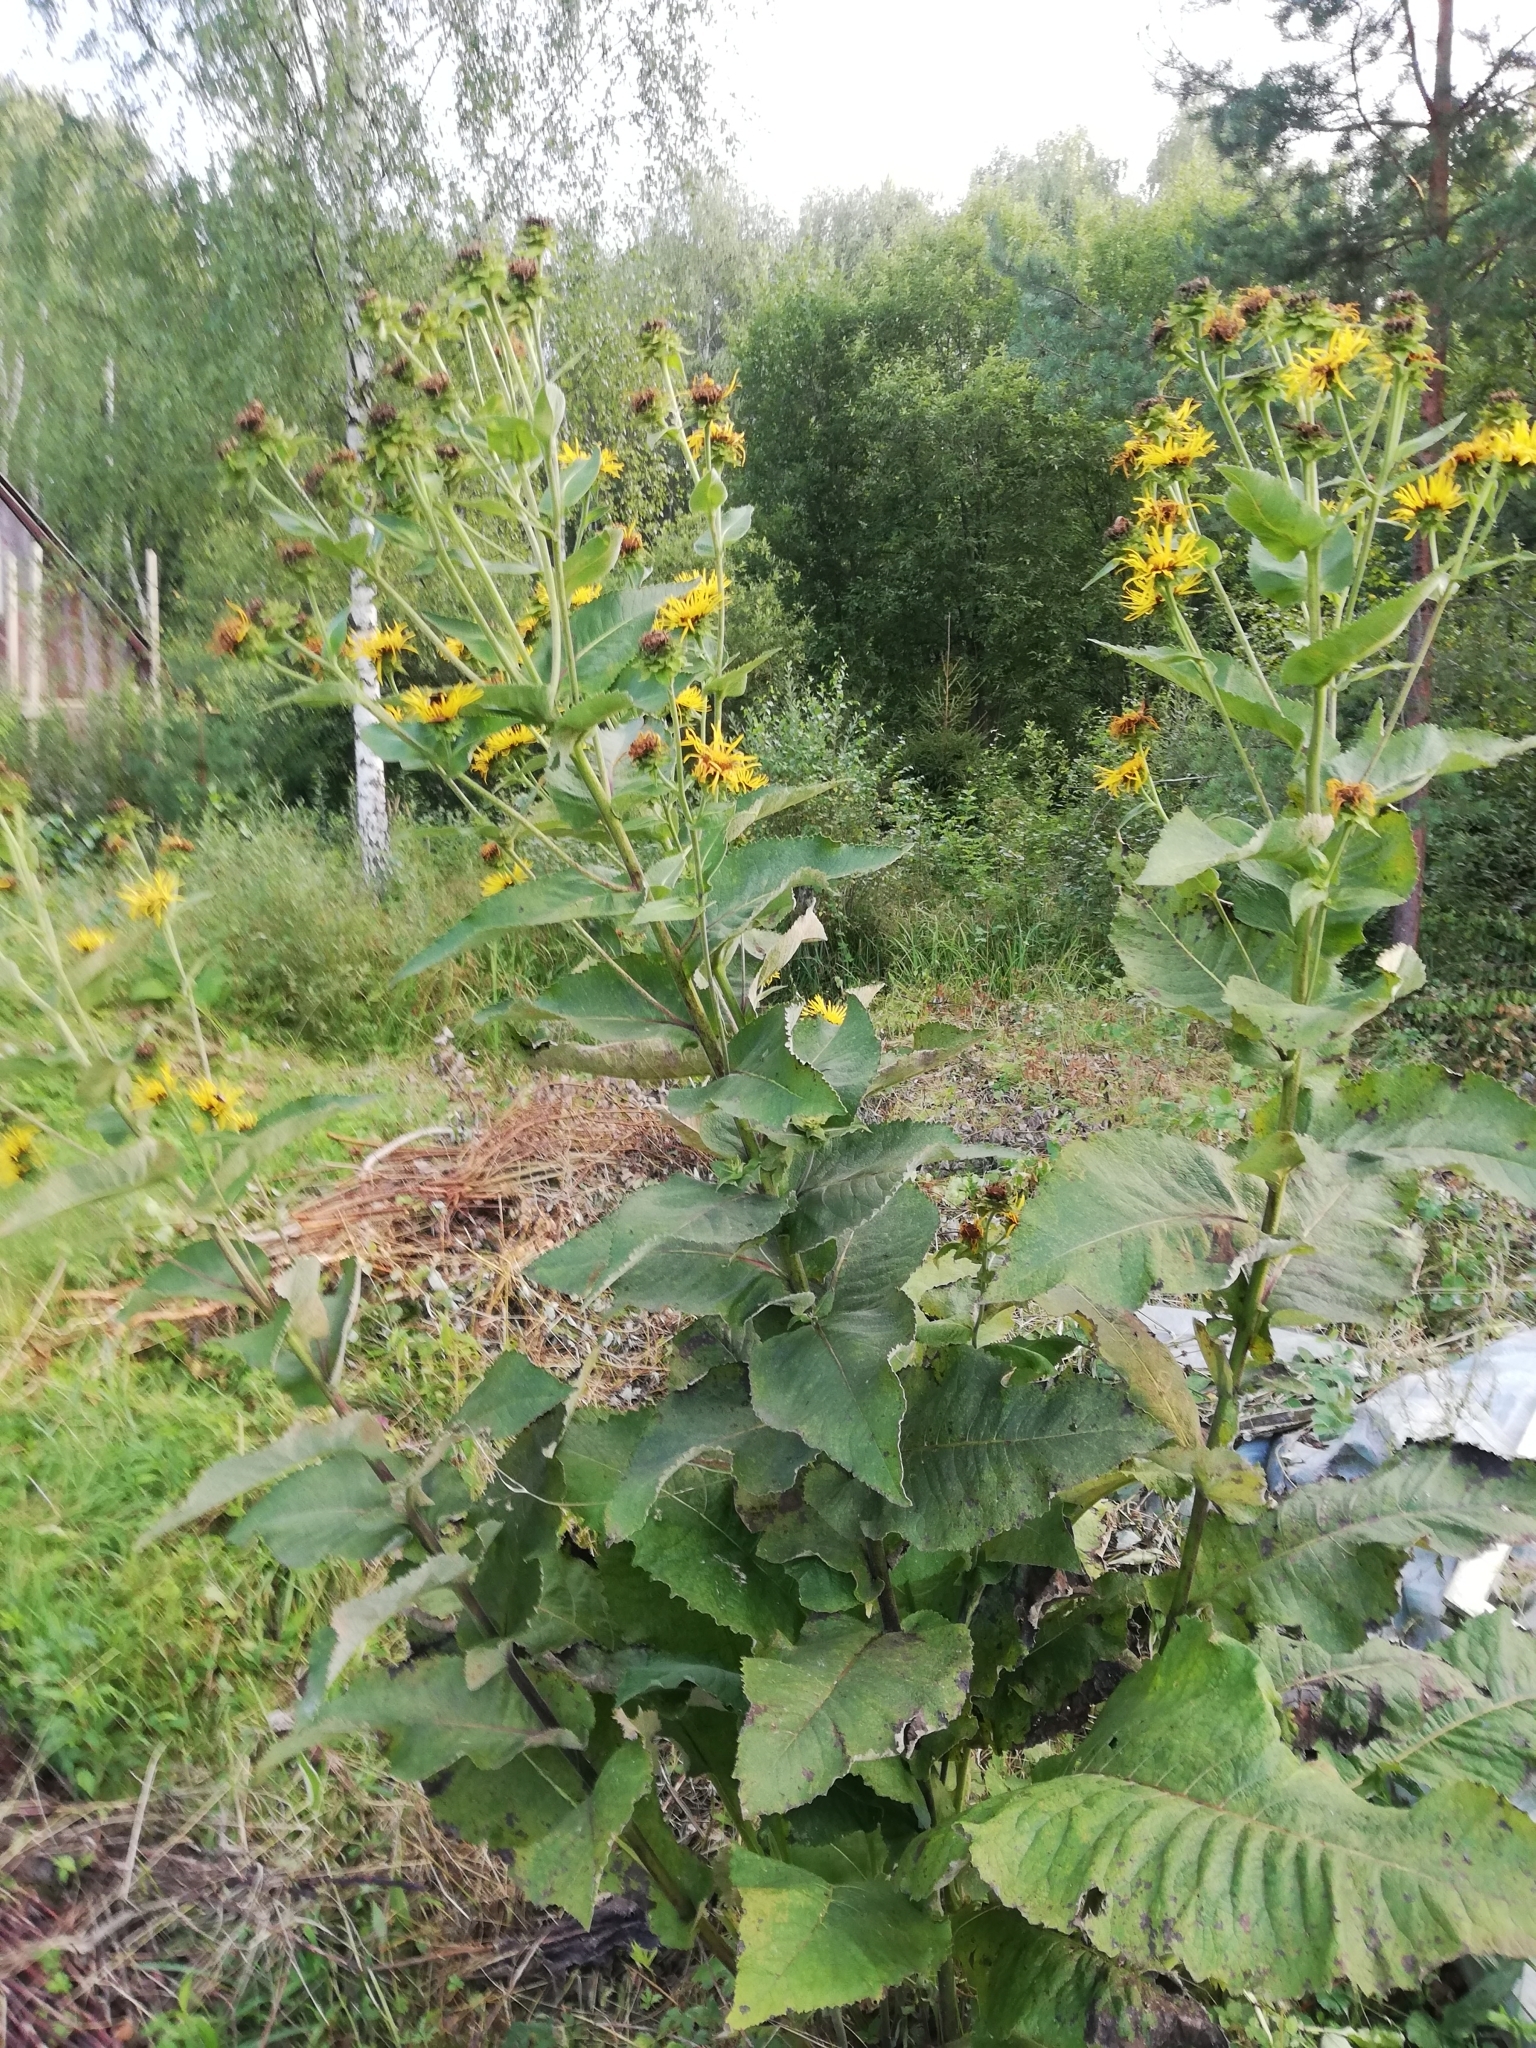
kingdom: Plantae
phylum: Tracheophyta
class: Magnoliopsida
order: Asterales
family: Asteraceae
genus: Inula
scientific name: Inula helenium
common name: Elecampane
